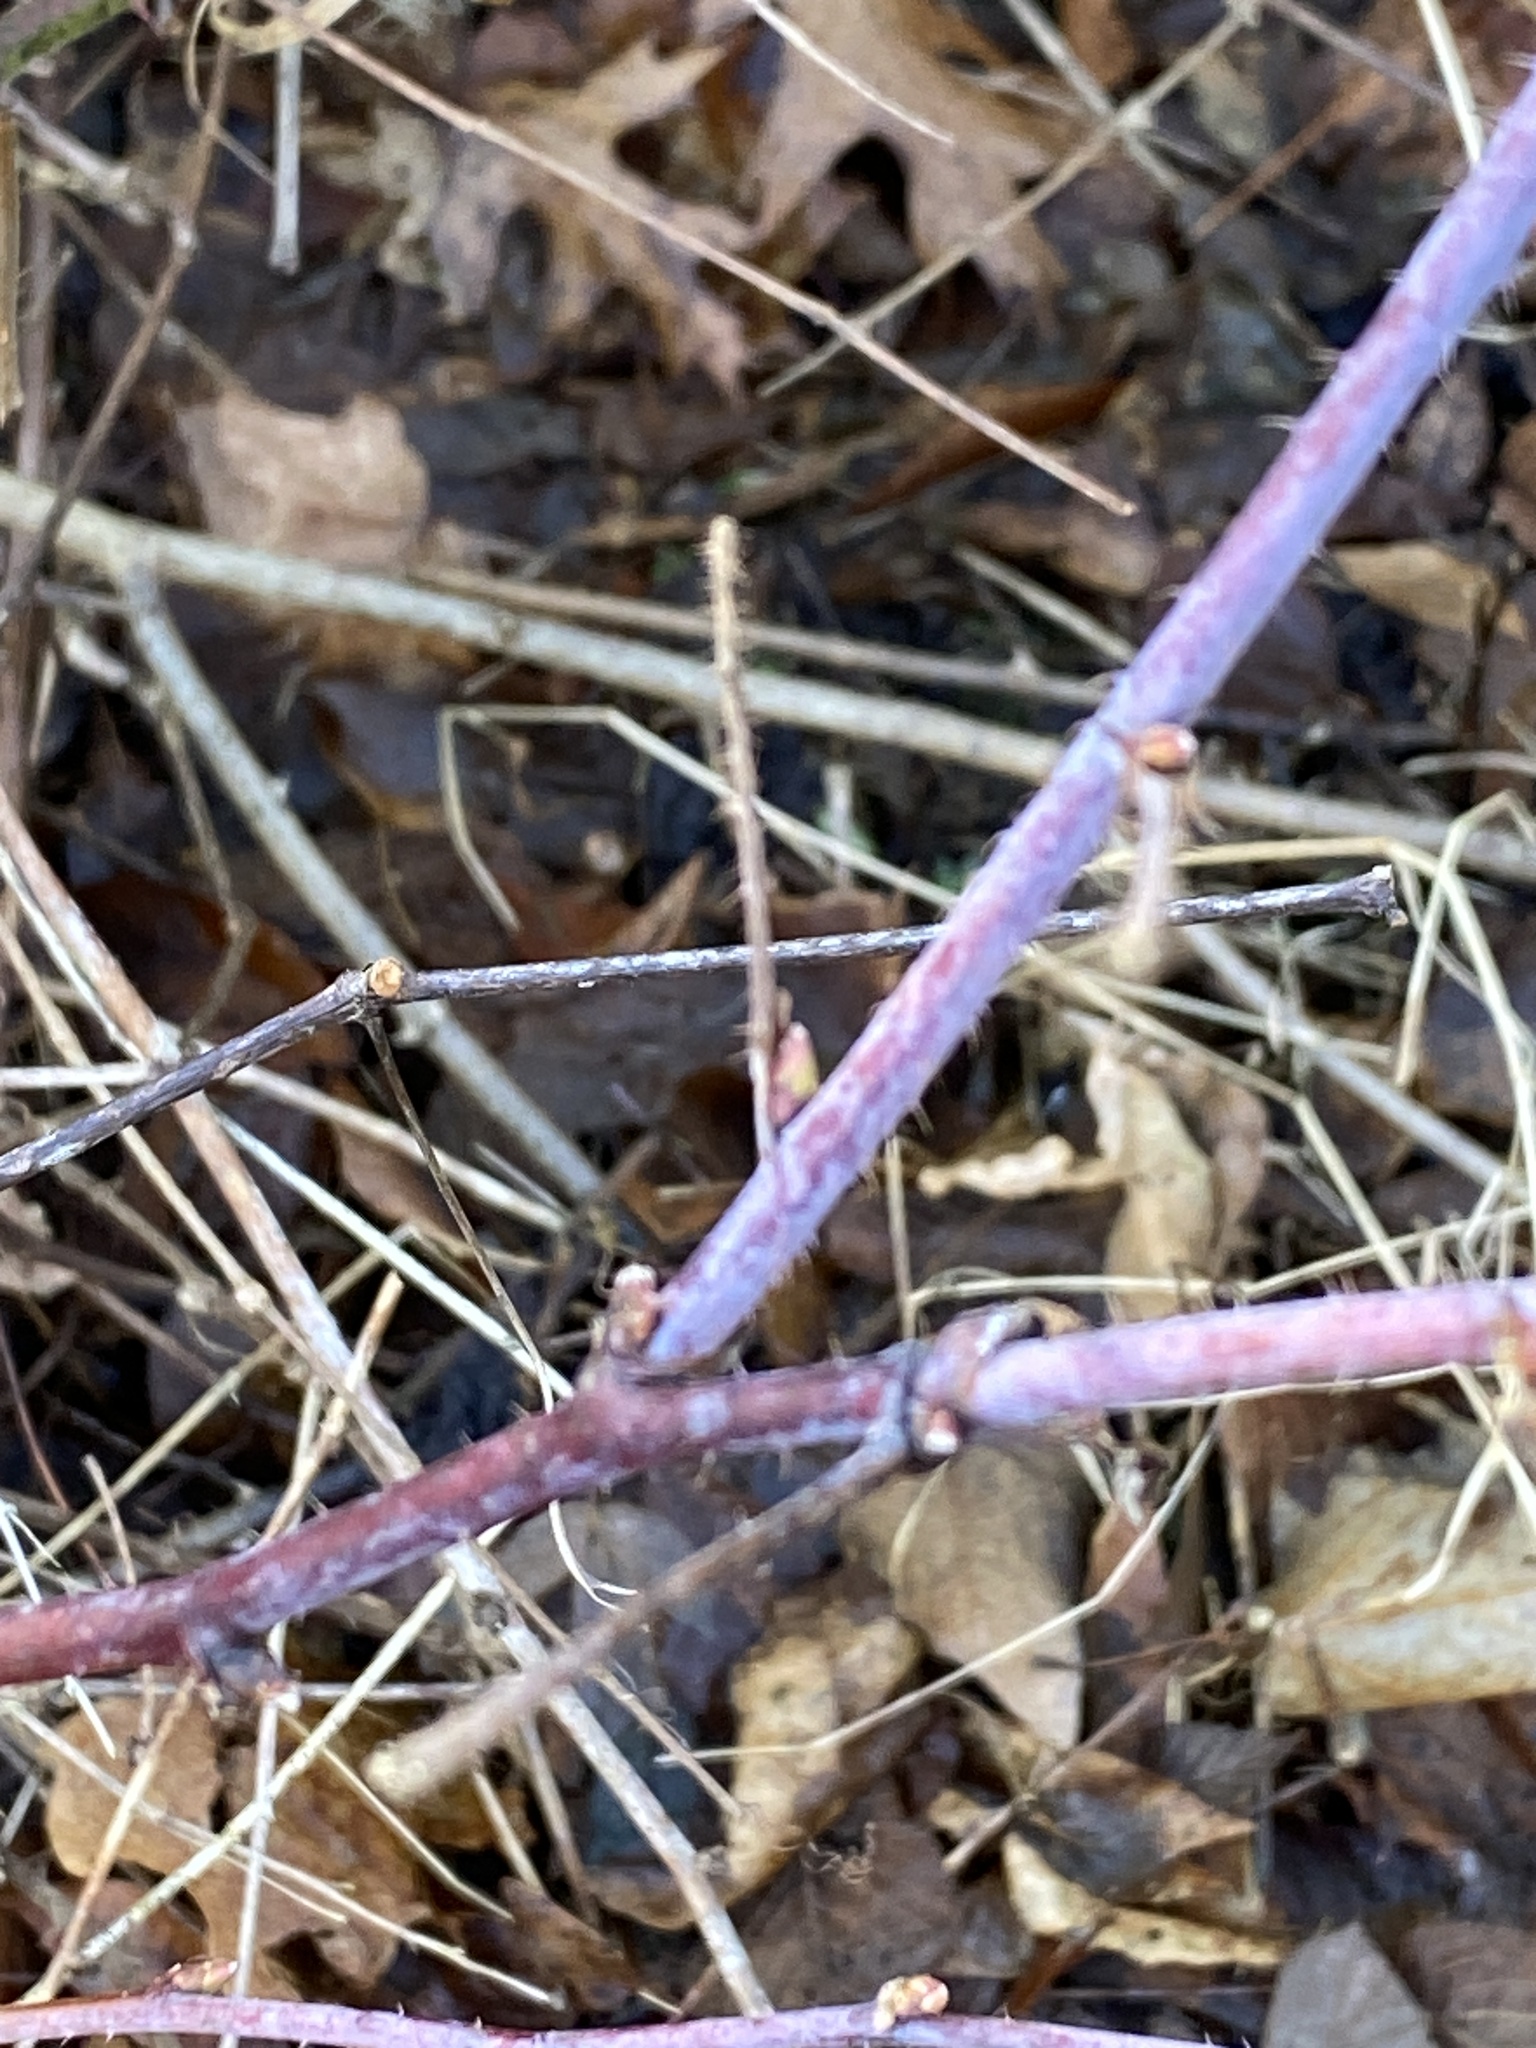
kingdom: Plantae
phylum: Tracheophyta
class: Magnoliopsida
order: Rosales
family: Rosaceae
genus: Rubus
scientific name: Rubus occidentalis
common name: Black raspberry
